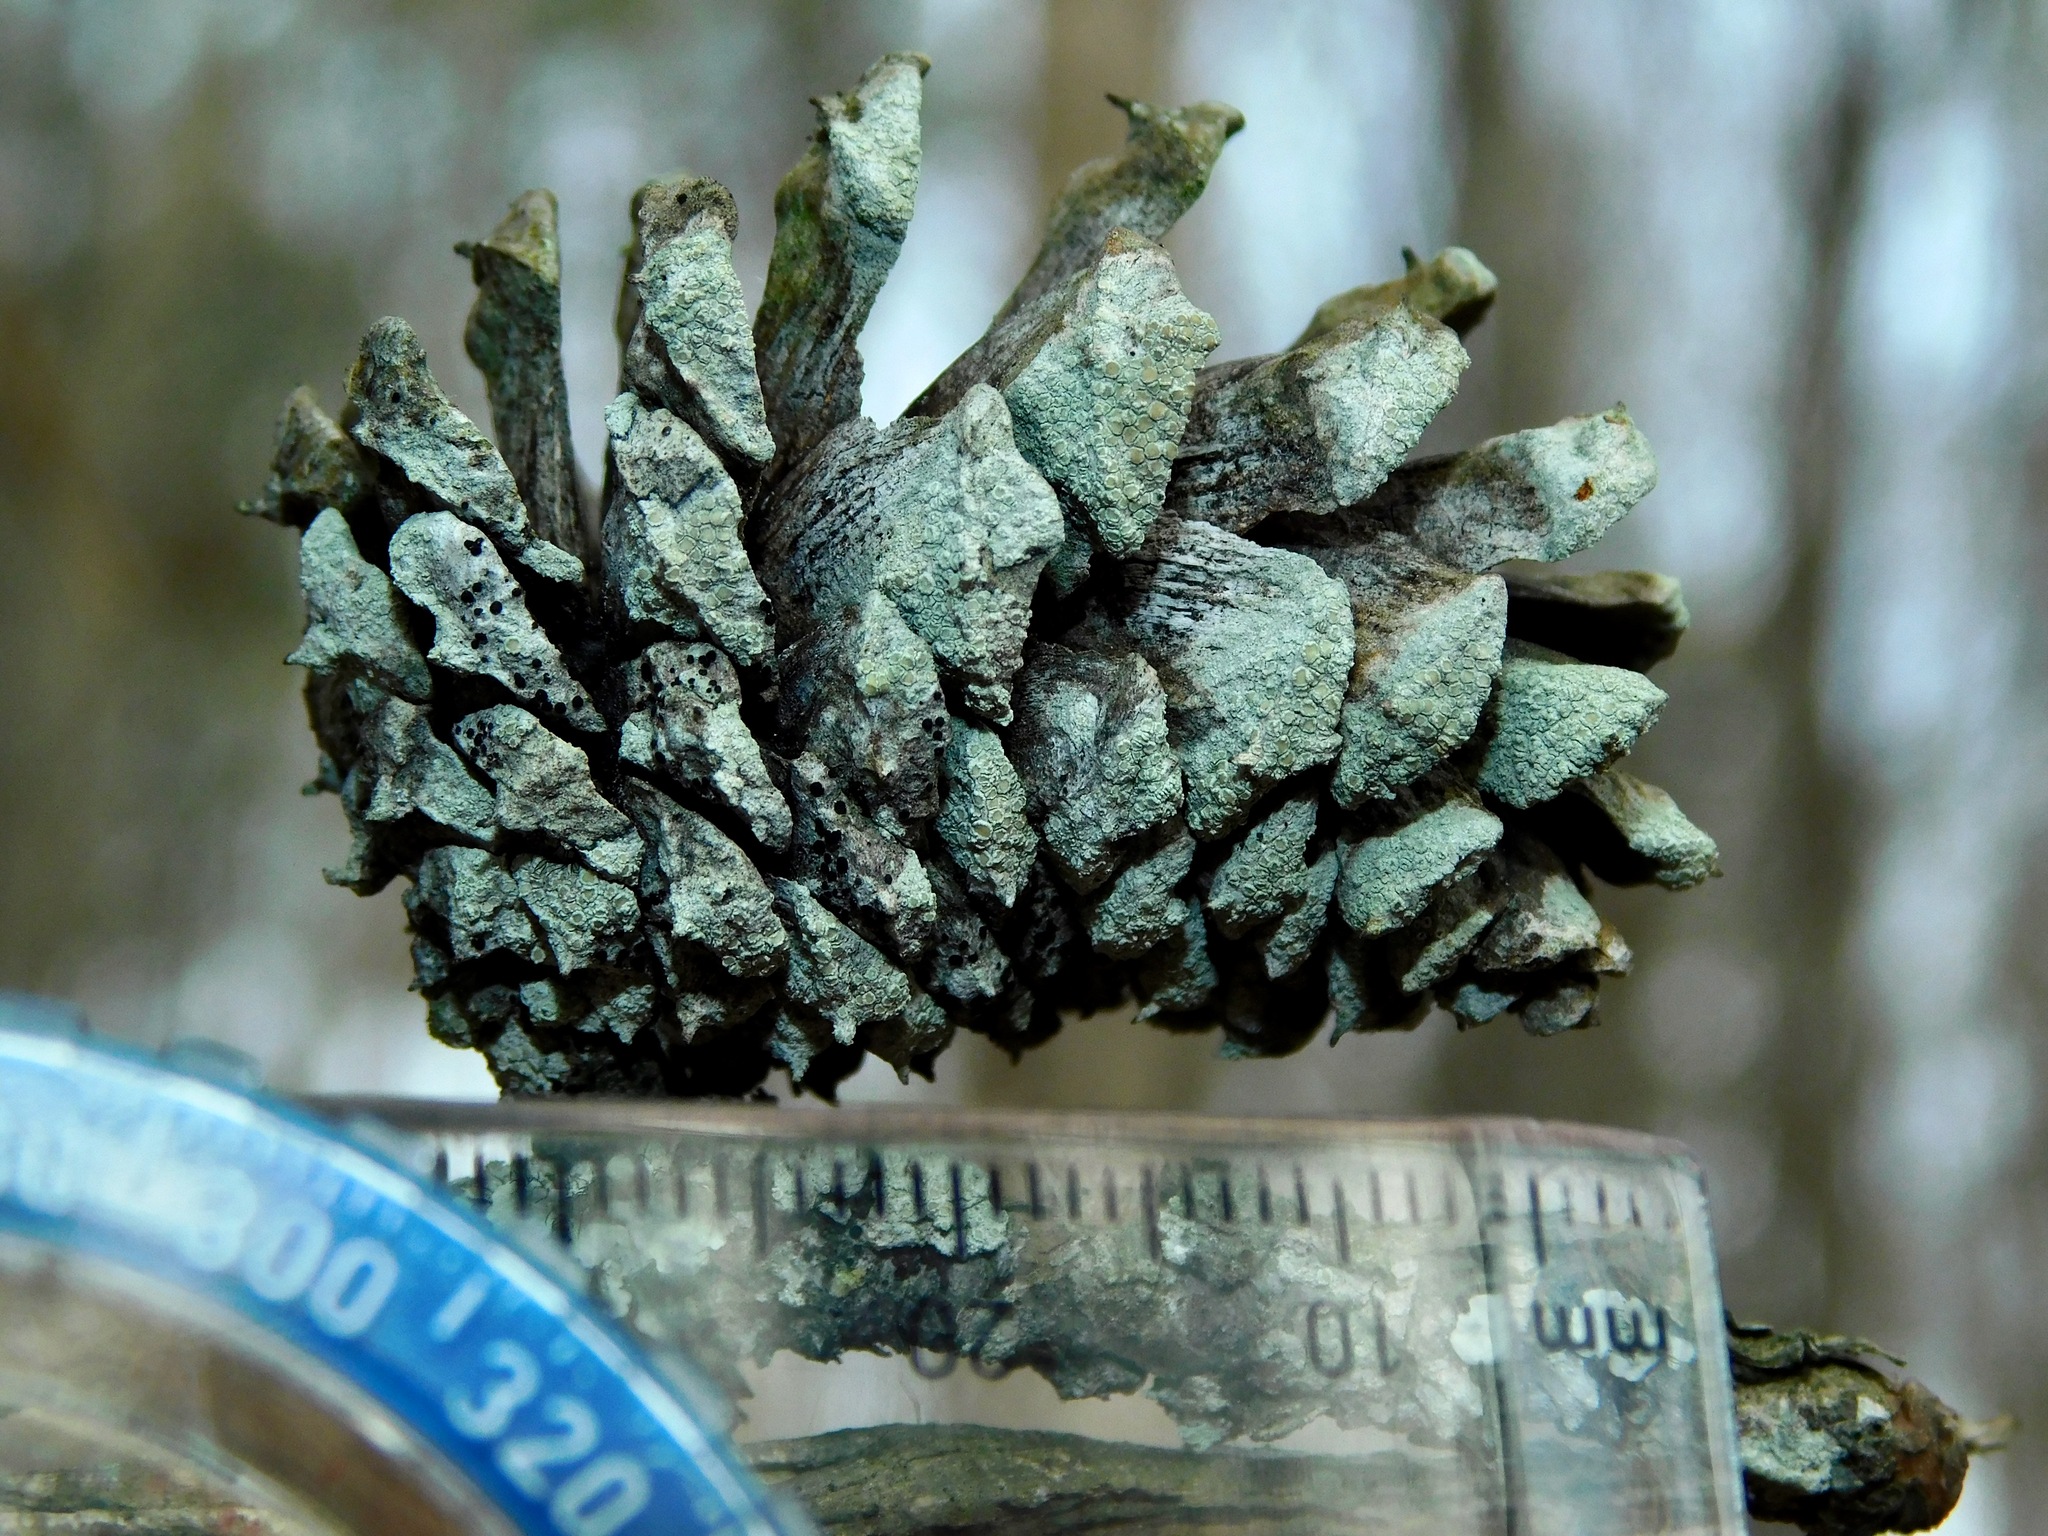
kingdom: Fungi
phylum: Ascomycota
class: Lecanoromycetes
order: Lecanorales
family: Lecanoraceae
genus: Lecanora
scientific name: Lecanora strobilina
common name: Mealy rim-lichen
